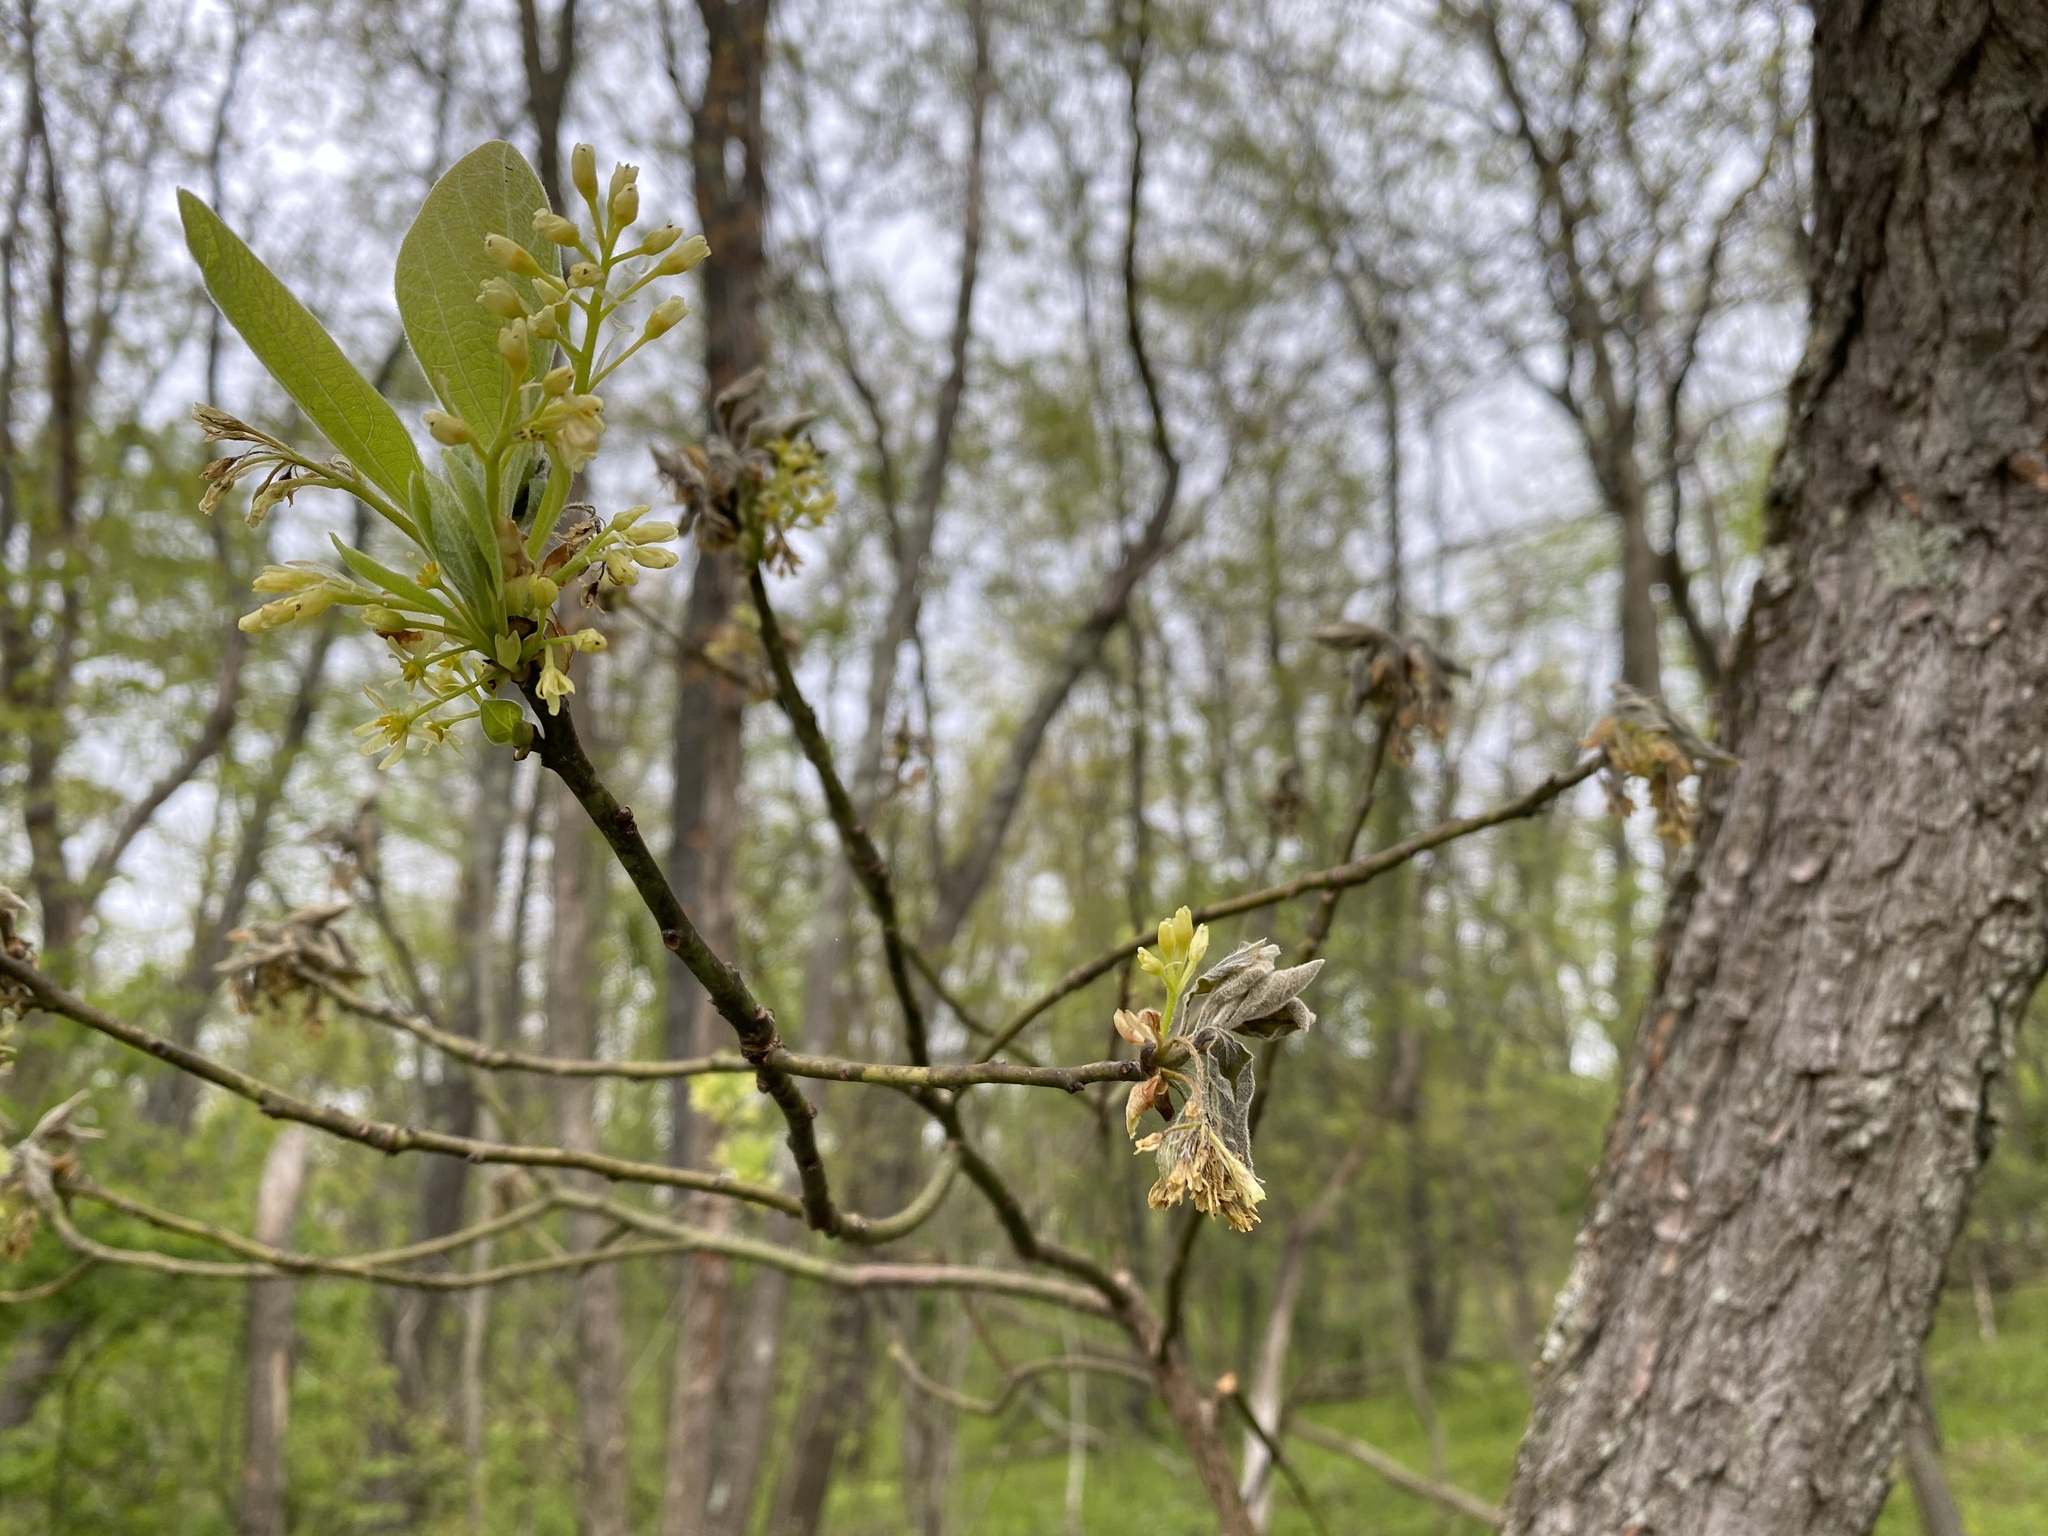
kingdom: Plantae
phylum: Tracheophyta
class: Magnoliopsida
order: Laurales
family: Lauraceae
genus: Sassafras
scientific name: Sassafras albidum
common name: Sassafras
